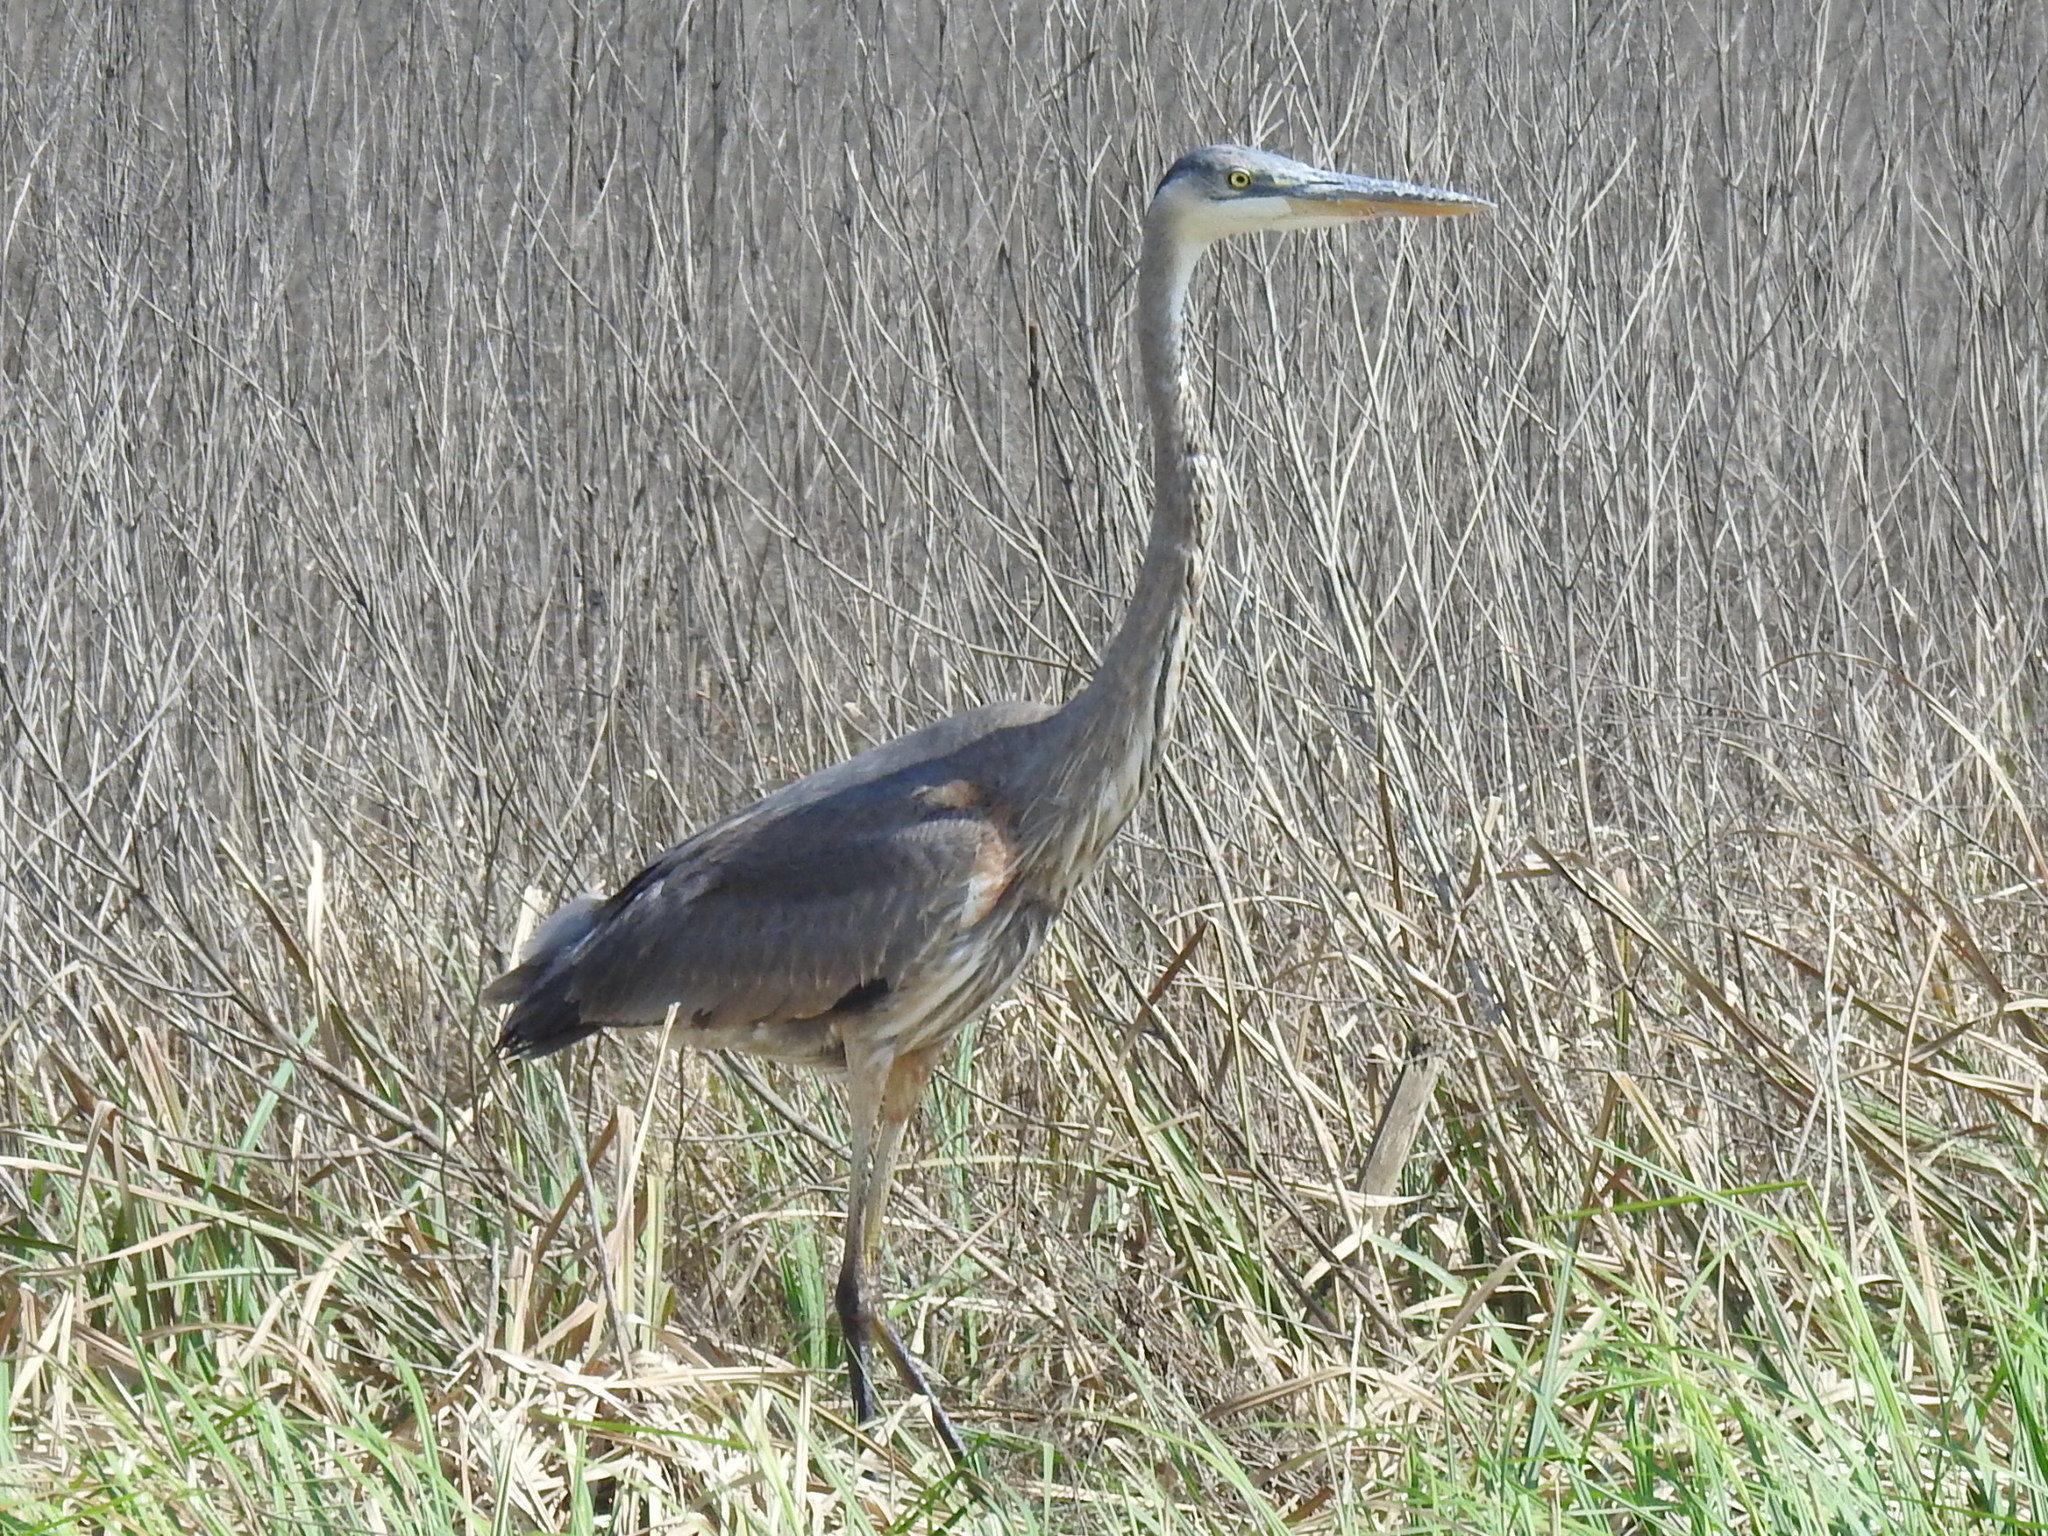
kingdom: Animalia
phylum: Chordata
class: Aves
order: Pelecaniformes
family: Ardeidae
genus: Ardea
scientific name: Ardea herodias
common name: Great blue heron
